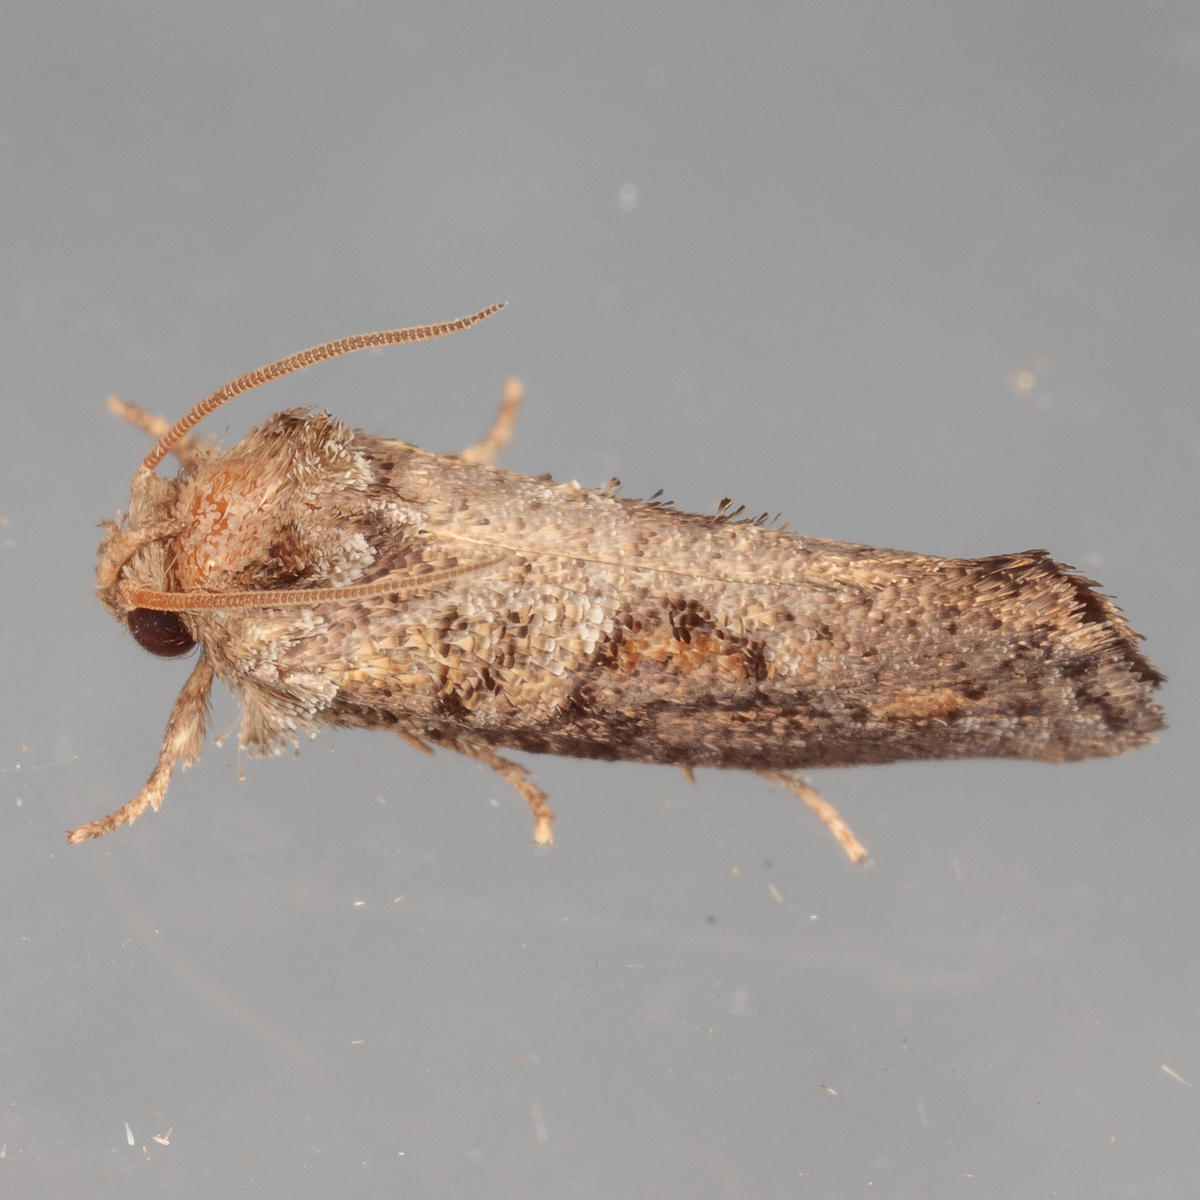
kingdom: Animalia
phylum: Arthropoda
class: Insecta
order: Lepidoptera
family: Tineidae
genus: Acrolophus
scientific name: Acrolophus piger
